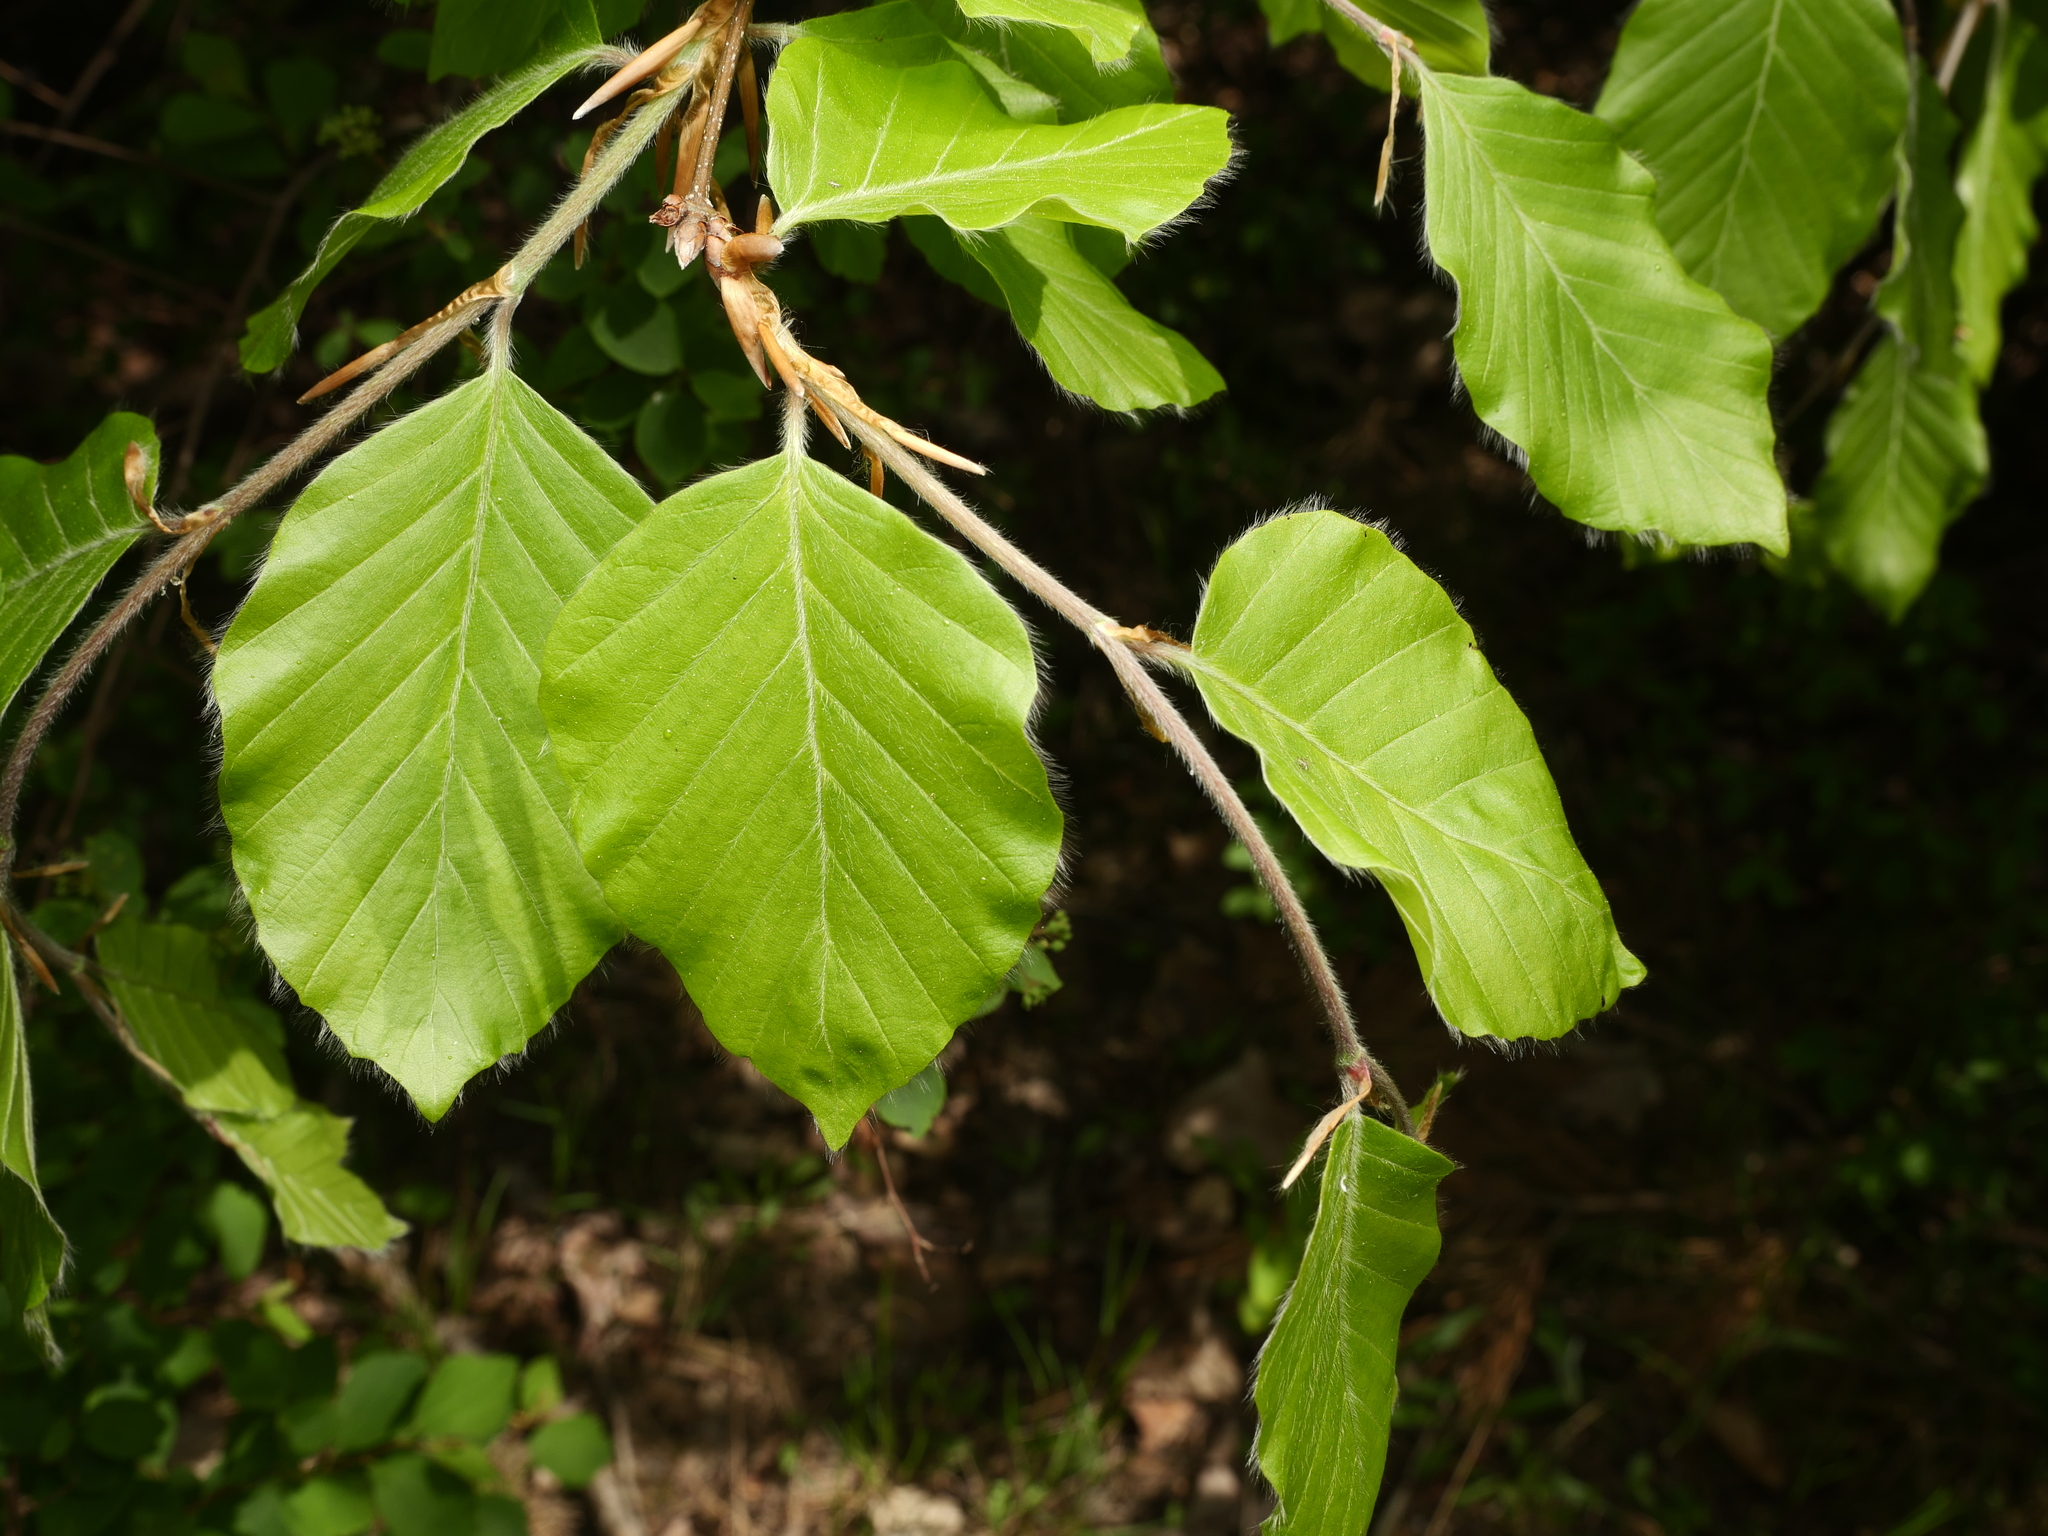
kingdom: Plantae
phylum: Tracheophyta
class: Magnoliopsida
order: Fagales
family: Fagaceae
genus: Fagus
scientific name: Fagus sylvatica
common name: Beech
